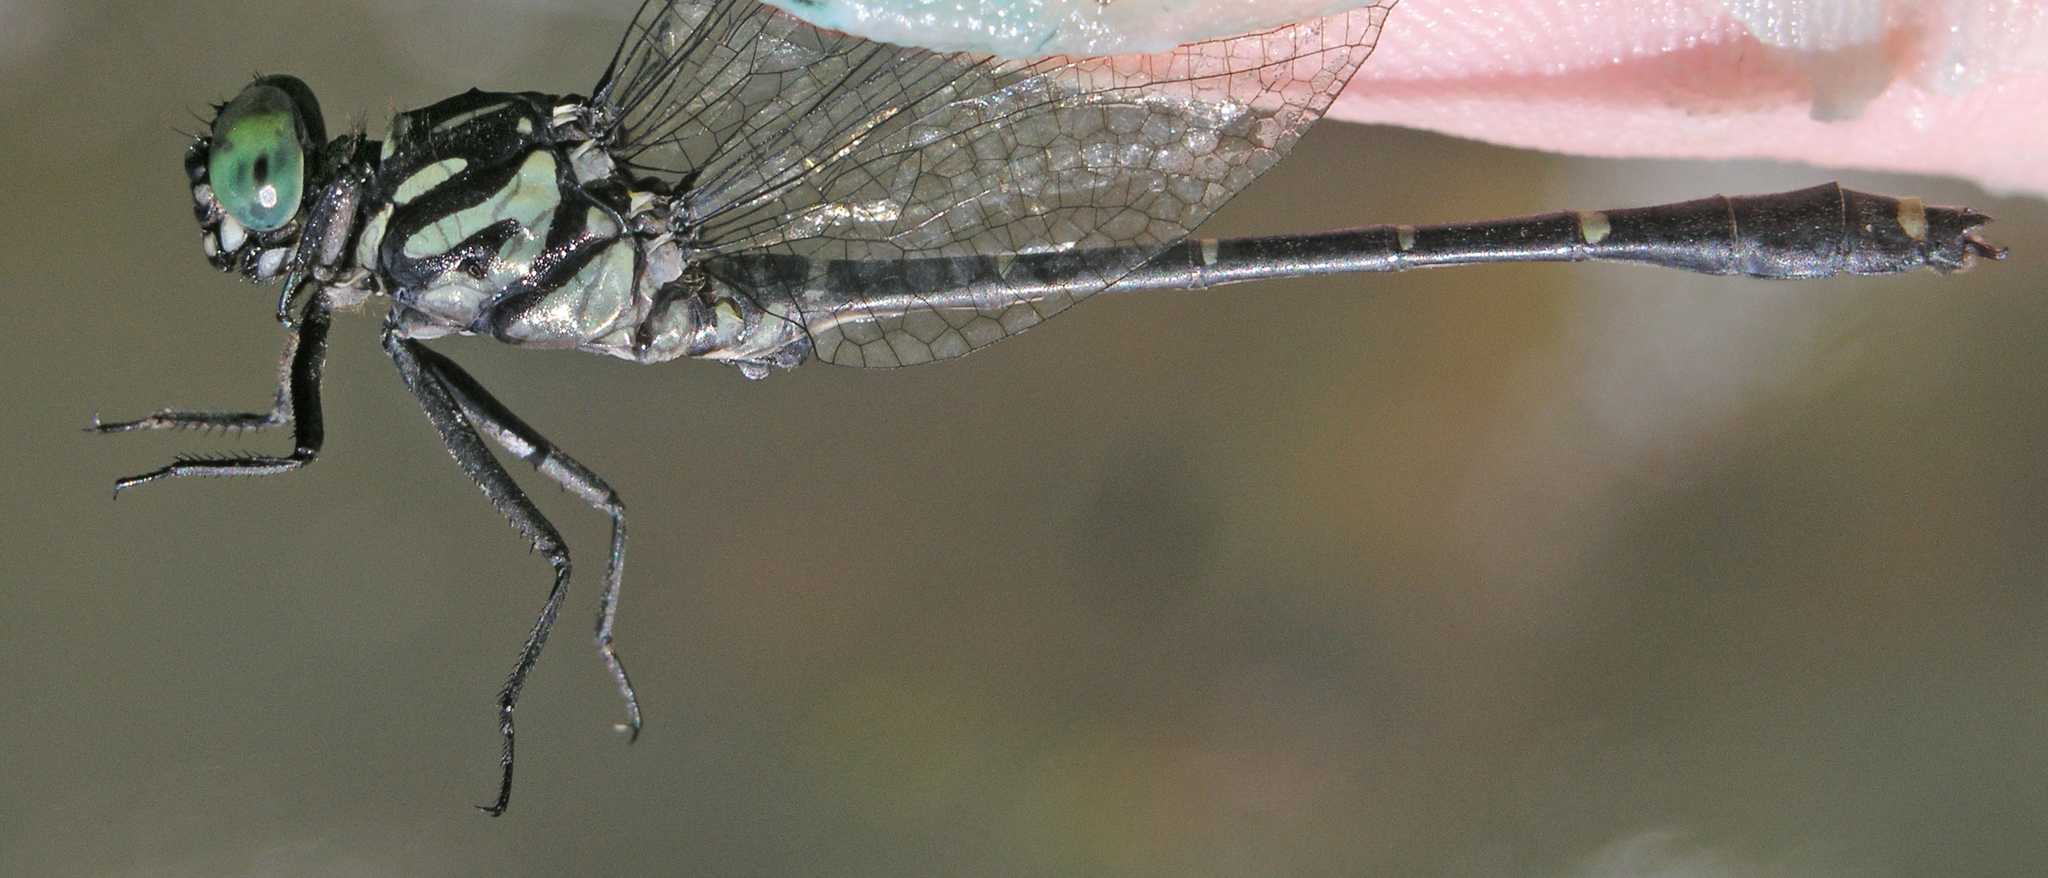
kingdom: Animalia
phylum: Arthropoda
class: Insecta
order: Odonata
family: Gomphidae
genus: Burmagomphus
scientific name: Burmagomphus asahinai
